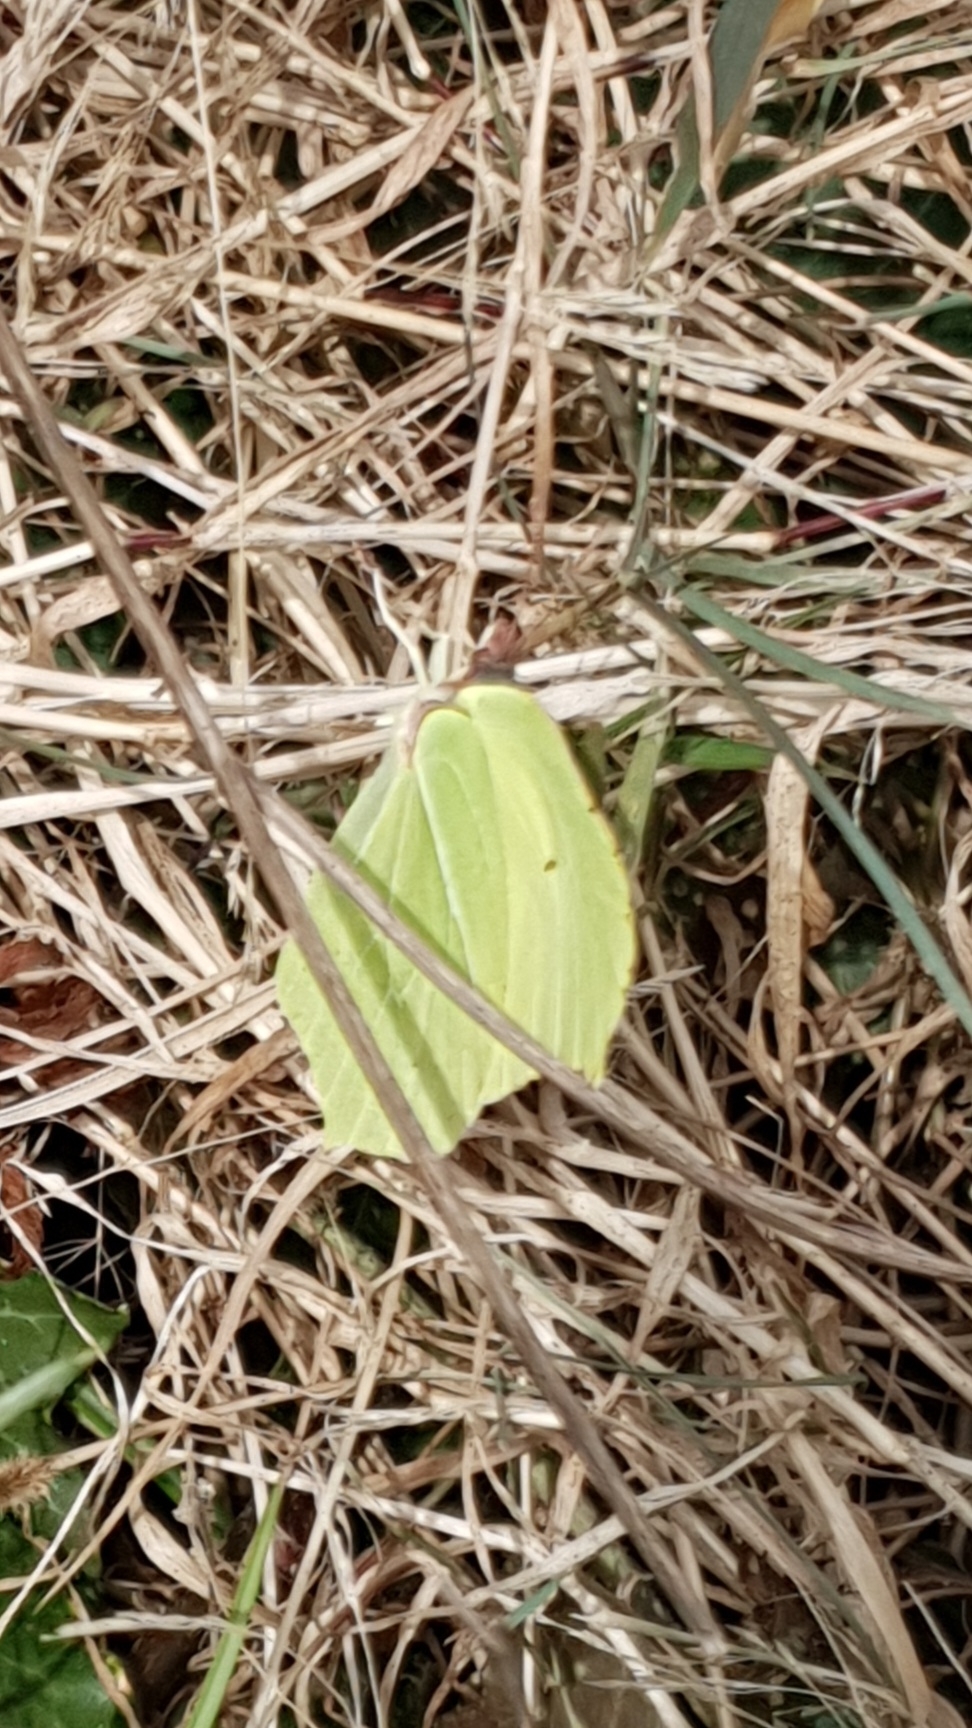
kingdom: Animalia
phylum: Arthropoda
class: Insecta
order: Lepidoptera
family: Pieridae
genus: Gonepteryx
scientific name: Gonepteryx rhamni
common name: Brimstone
